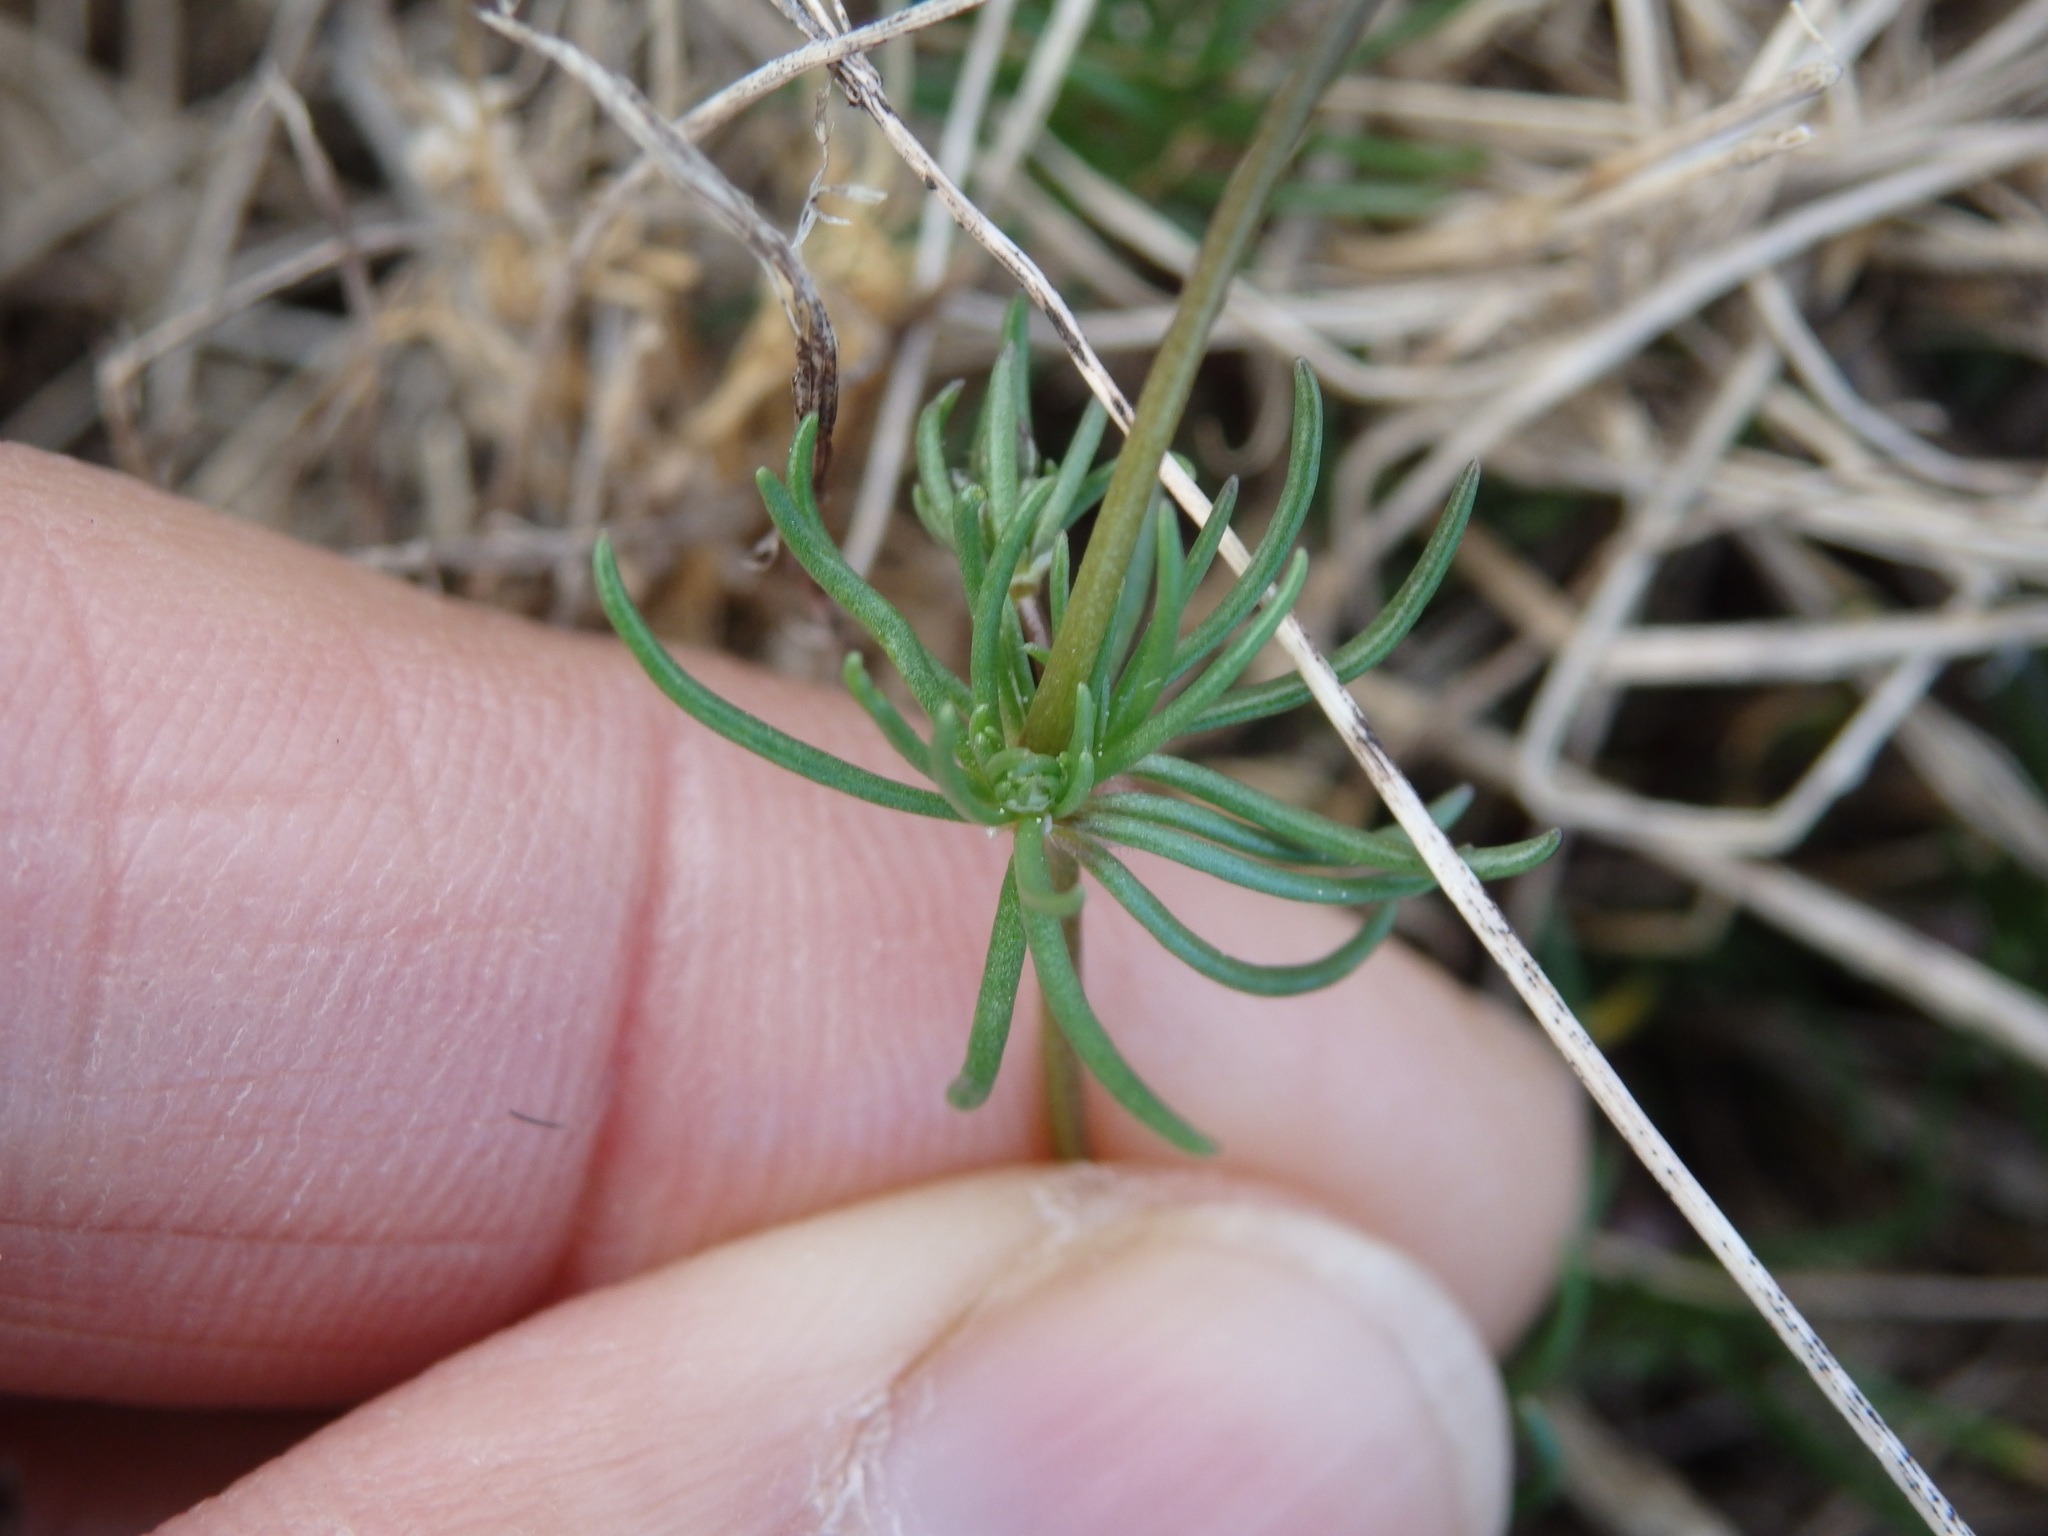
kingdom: Plantae
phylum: Tracheophyta
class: Magnoliopsida
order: Caryophyllales
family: Caryophyllaceae
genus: Spergula
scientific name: Spergula morisonii
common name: Pearlwort spurrey
